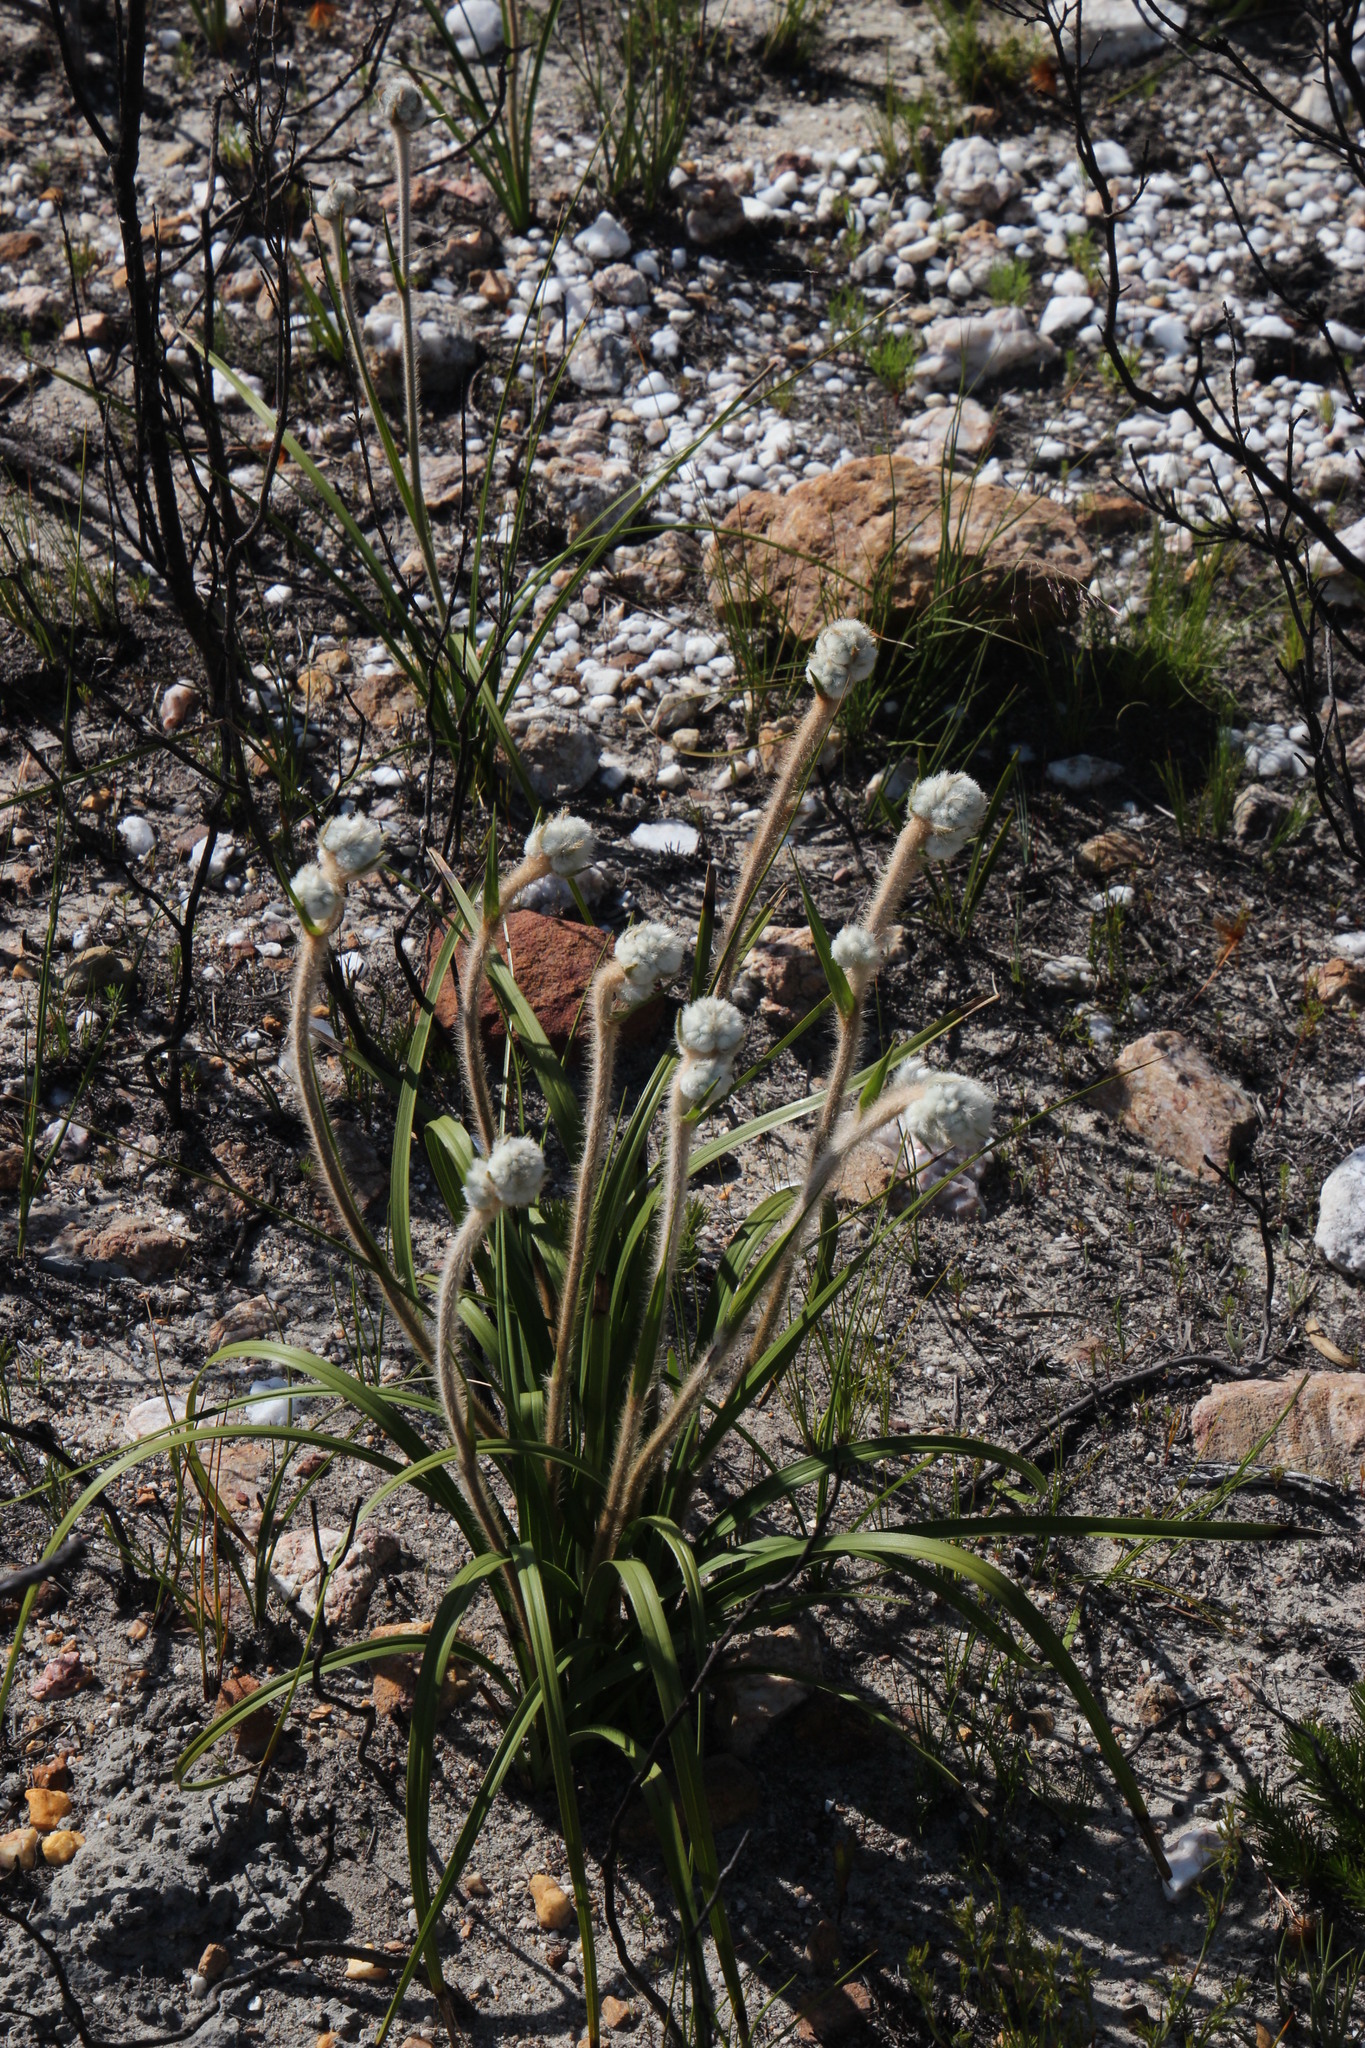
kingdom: Plantae
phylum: Tracheophyta
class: Liliopsida
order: Asparagales
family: Lanariaceae
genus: Lanaria
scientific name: Lanaria lanata
